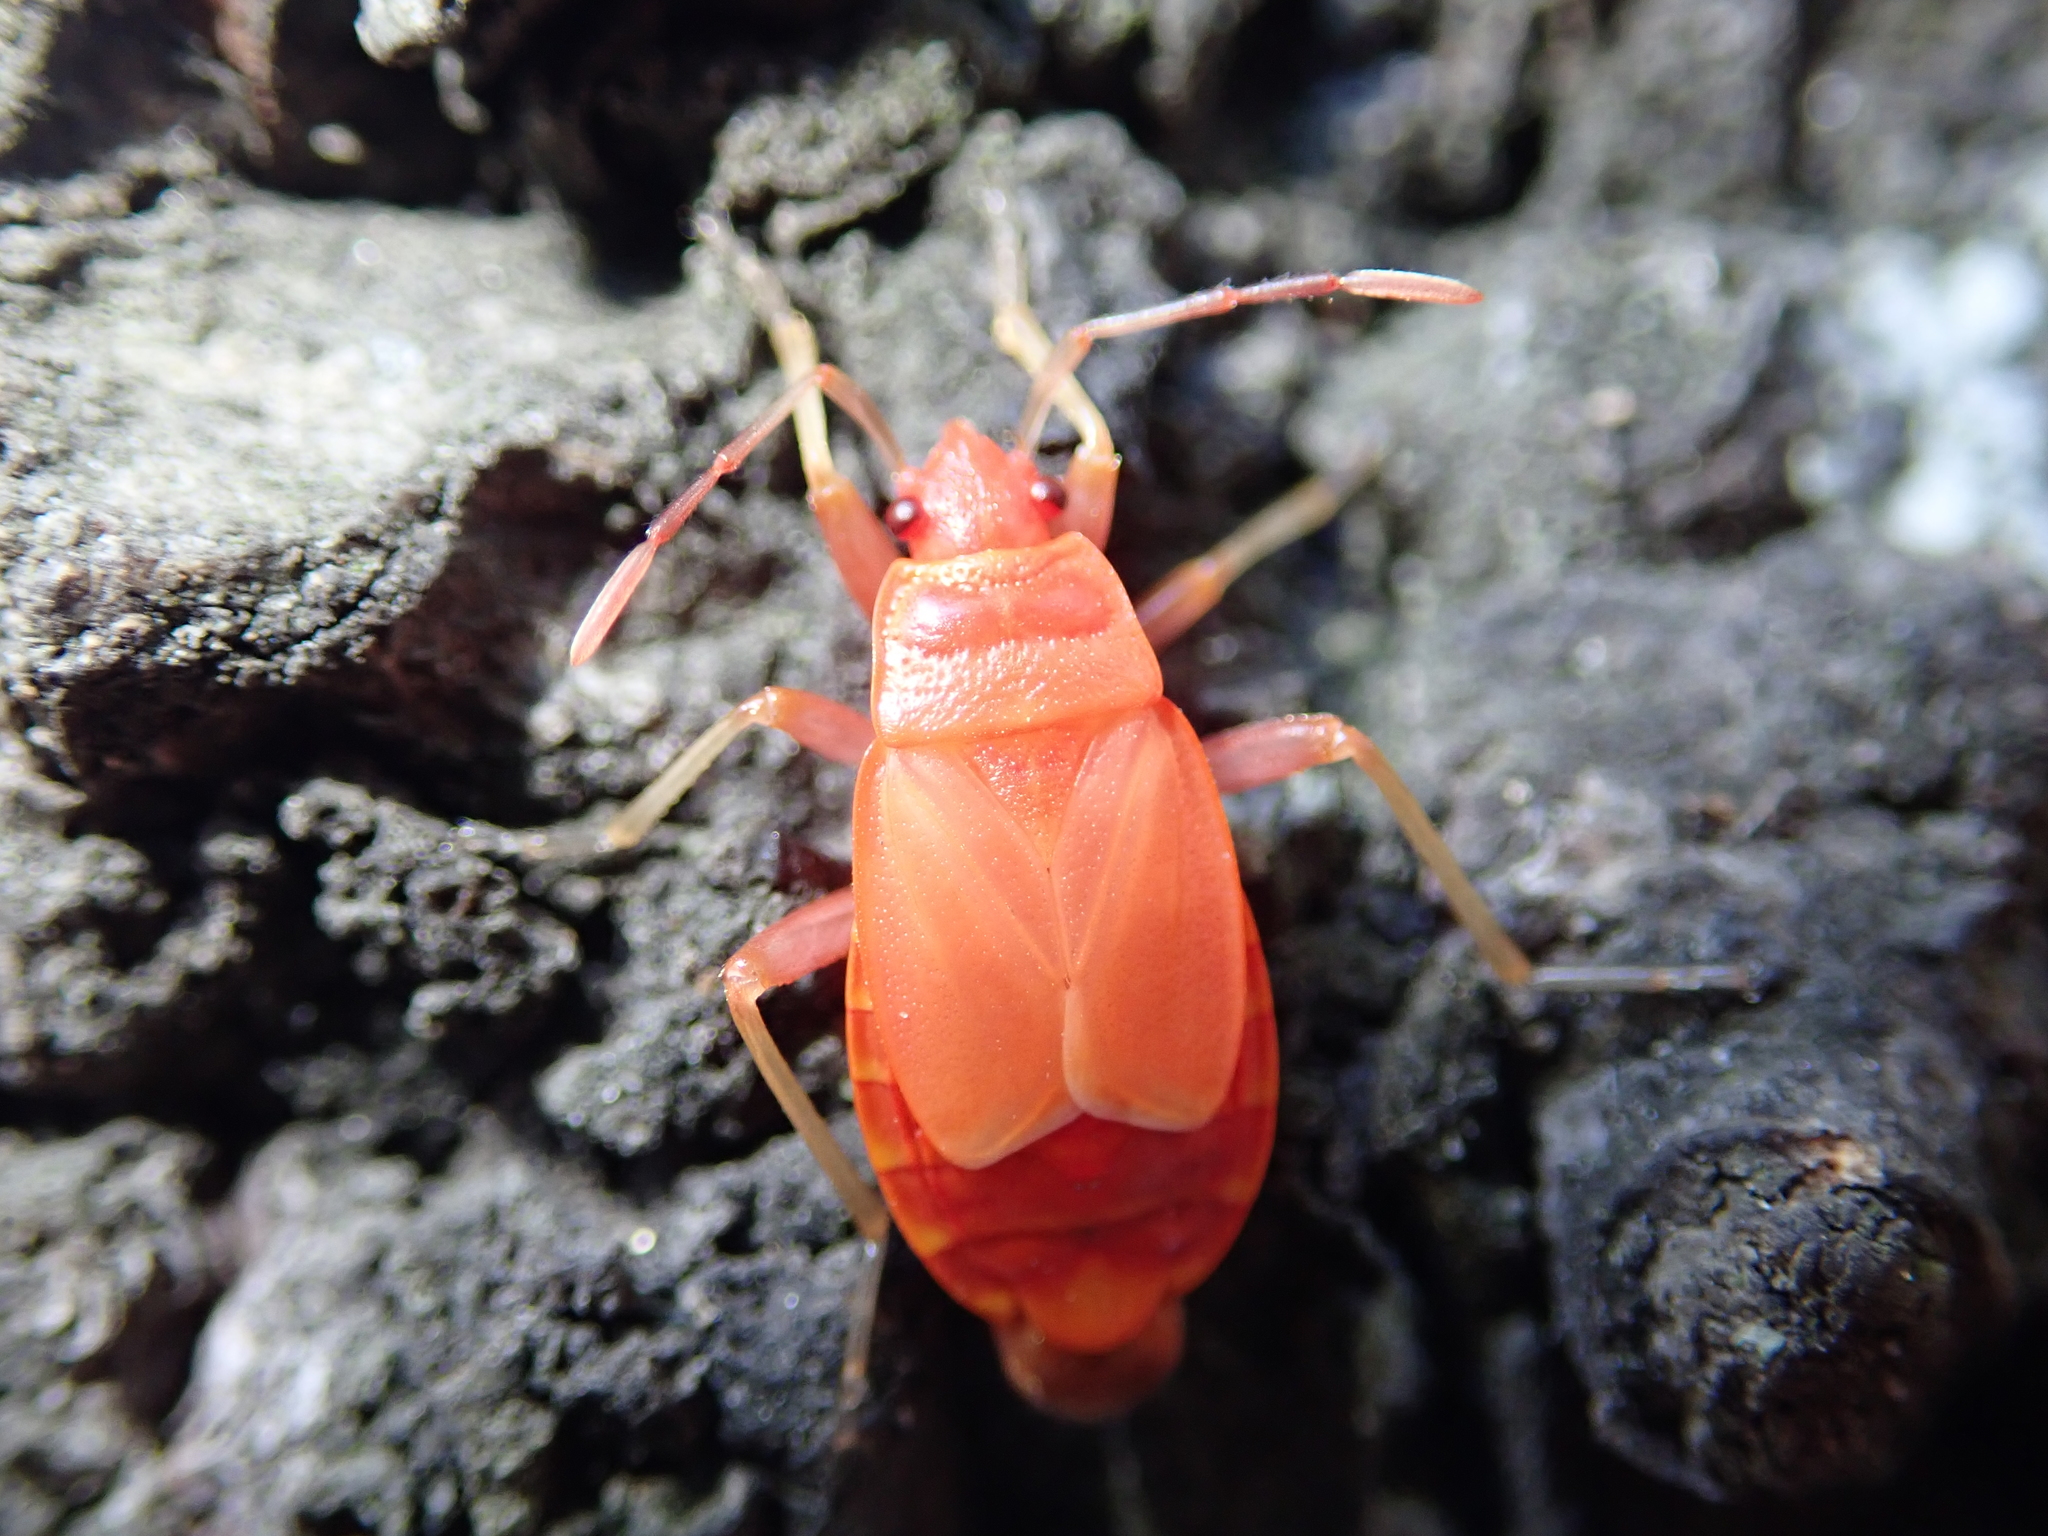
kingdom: Animalia
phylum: Arthropoda
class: Insecta
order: Hemiptera
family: Pyrrhocoridae
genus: Pyrrhocoris
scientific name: Pyrrhocoris apterus
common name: Firebug
